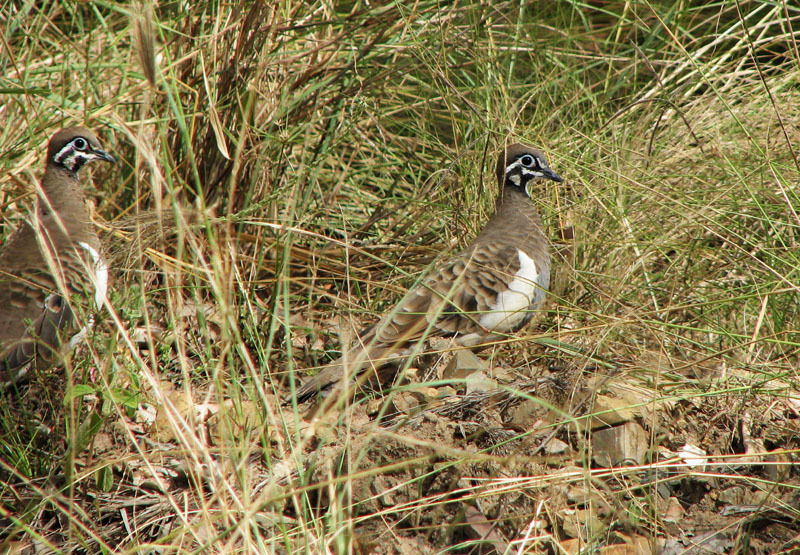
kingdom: Animalia
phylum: Chordata
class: Aves
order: Columbiformes
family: Columbidae
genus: Geophaps
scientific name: Geophaps scripta
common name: Squatter pigeon
